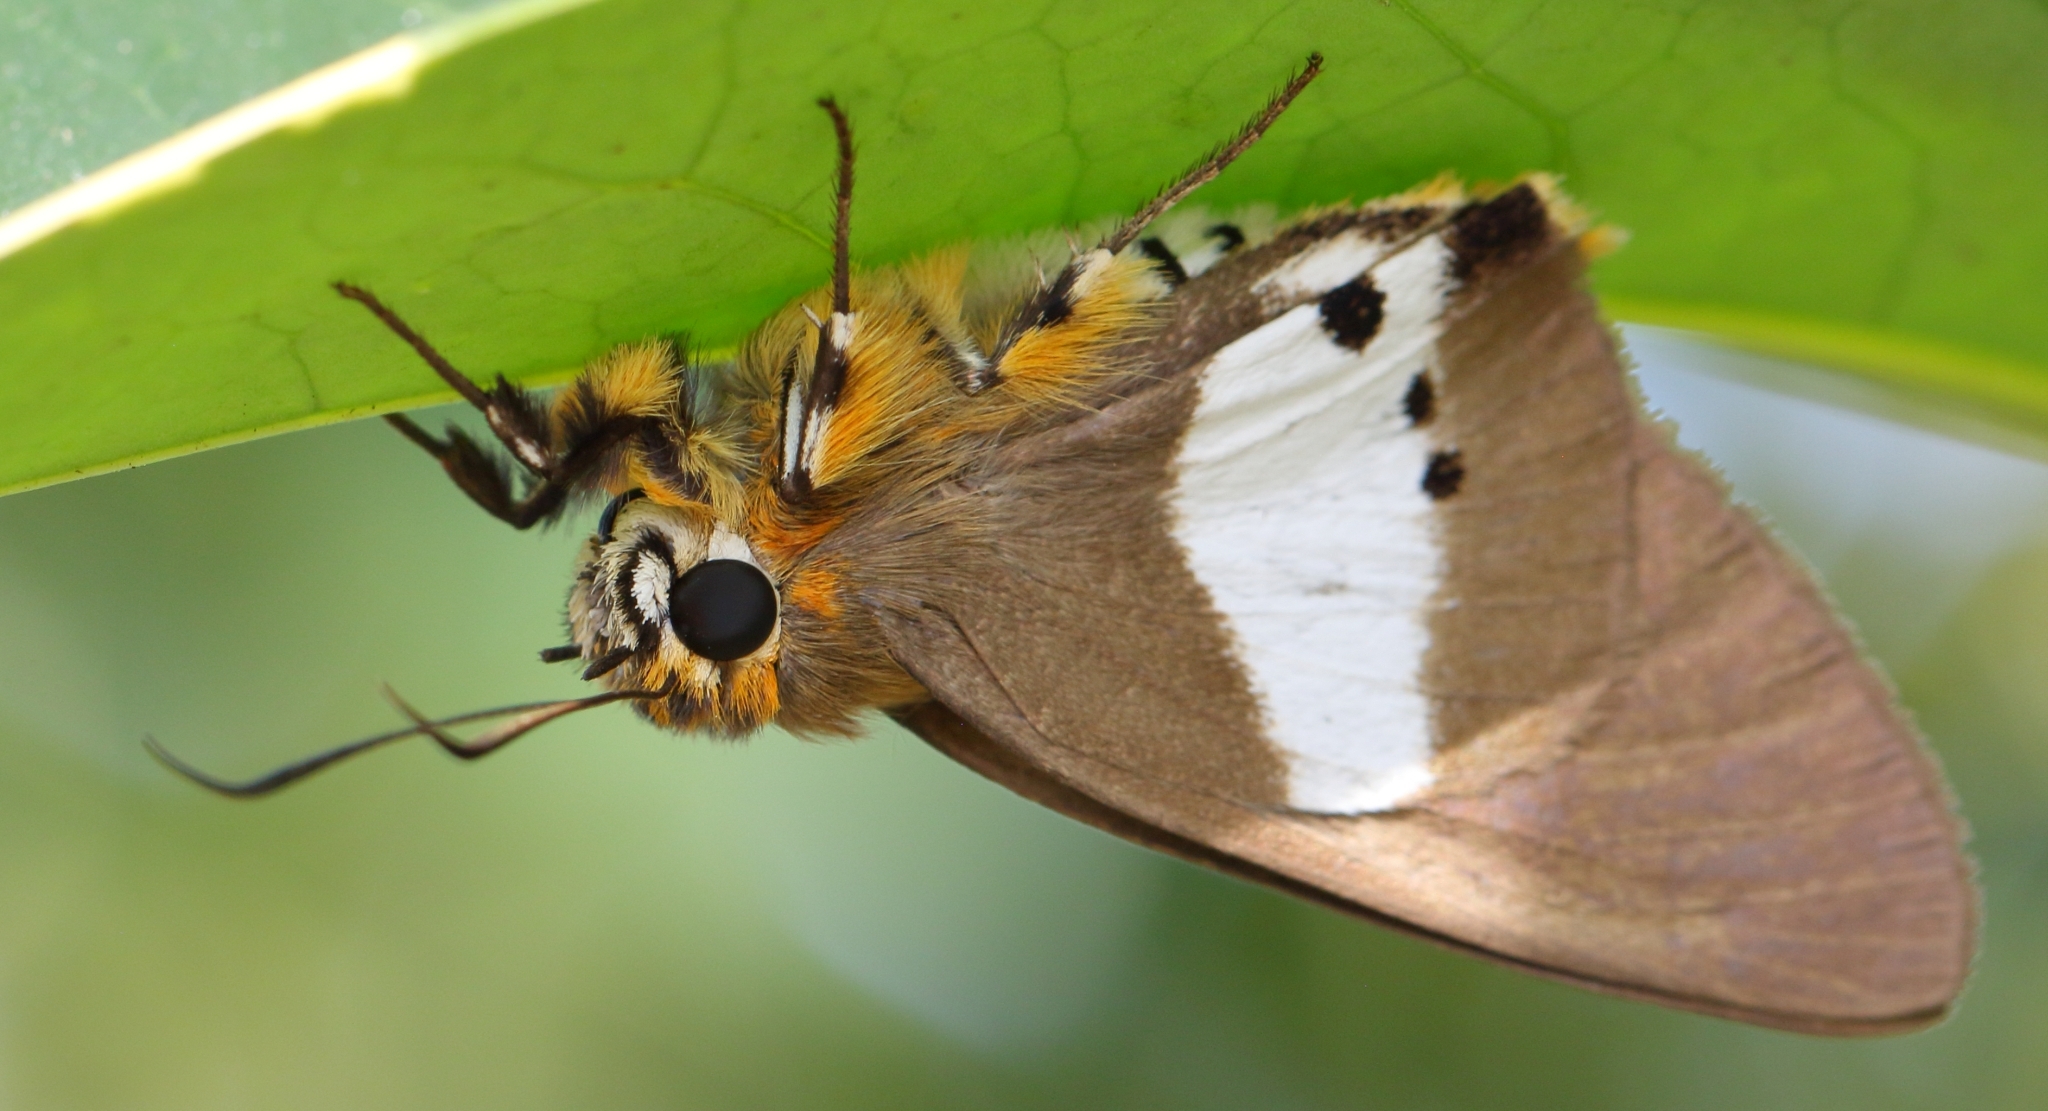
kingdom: Animalia
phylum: Arthropoda
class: Insecta
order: Lepidoptera
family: Hesperiidae
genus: Coeliades
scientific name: Coeliades pisistratus
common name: Two-pip policeman
